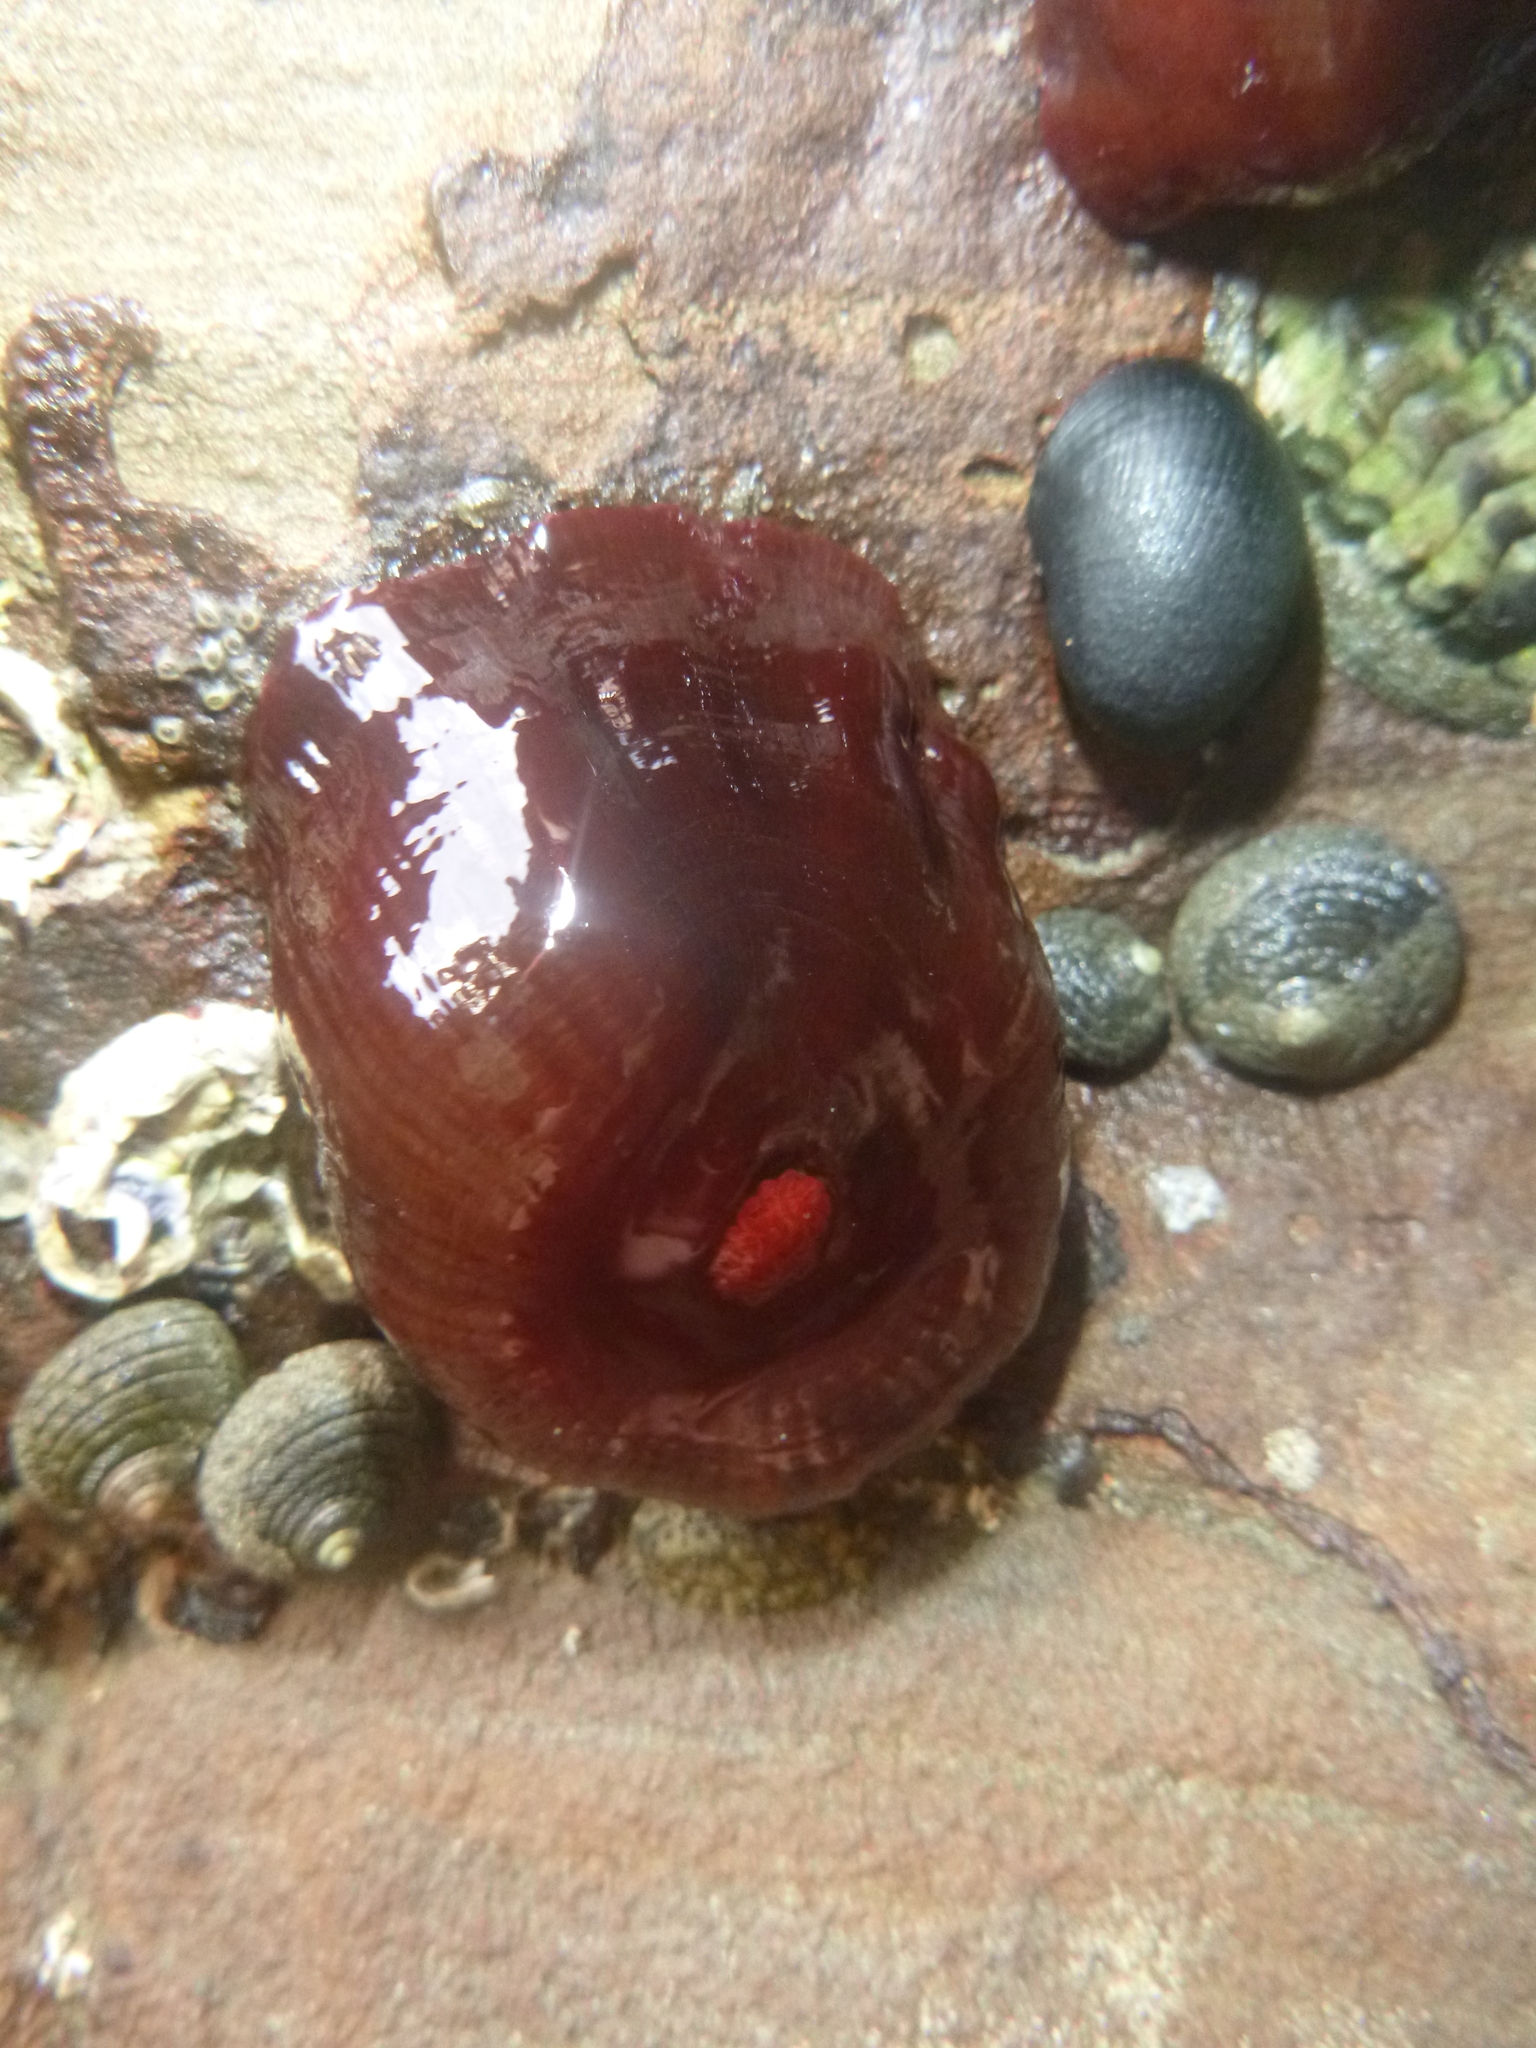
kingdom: Animalia
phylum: Cnidaria
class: Anthozoa
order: Actiniaria
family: Actiniidae
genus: Actinia
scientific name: Actinia tenebrosa
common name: Waratah anemone
